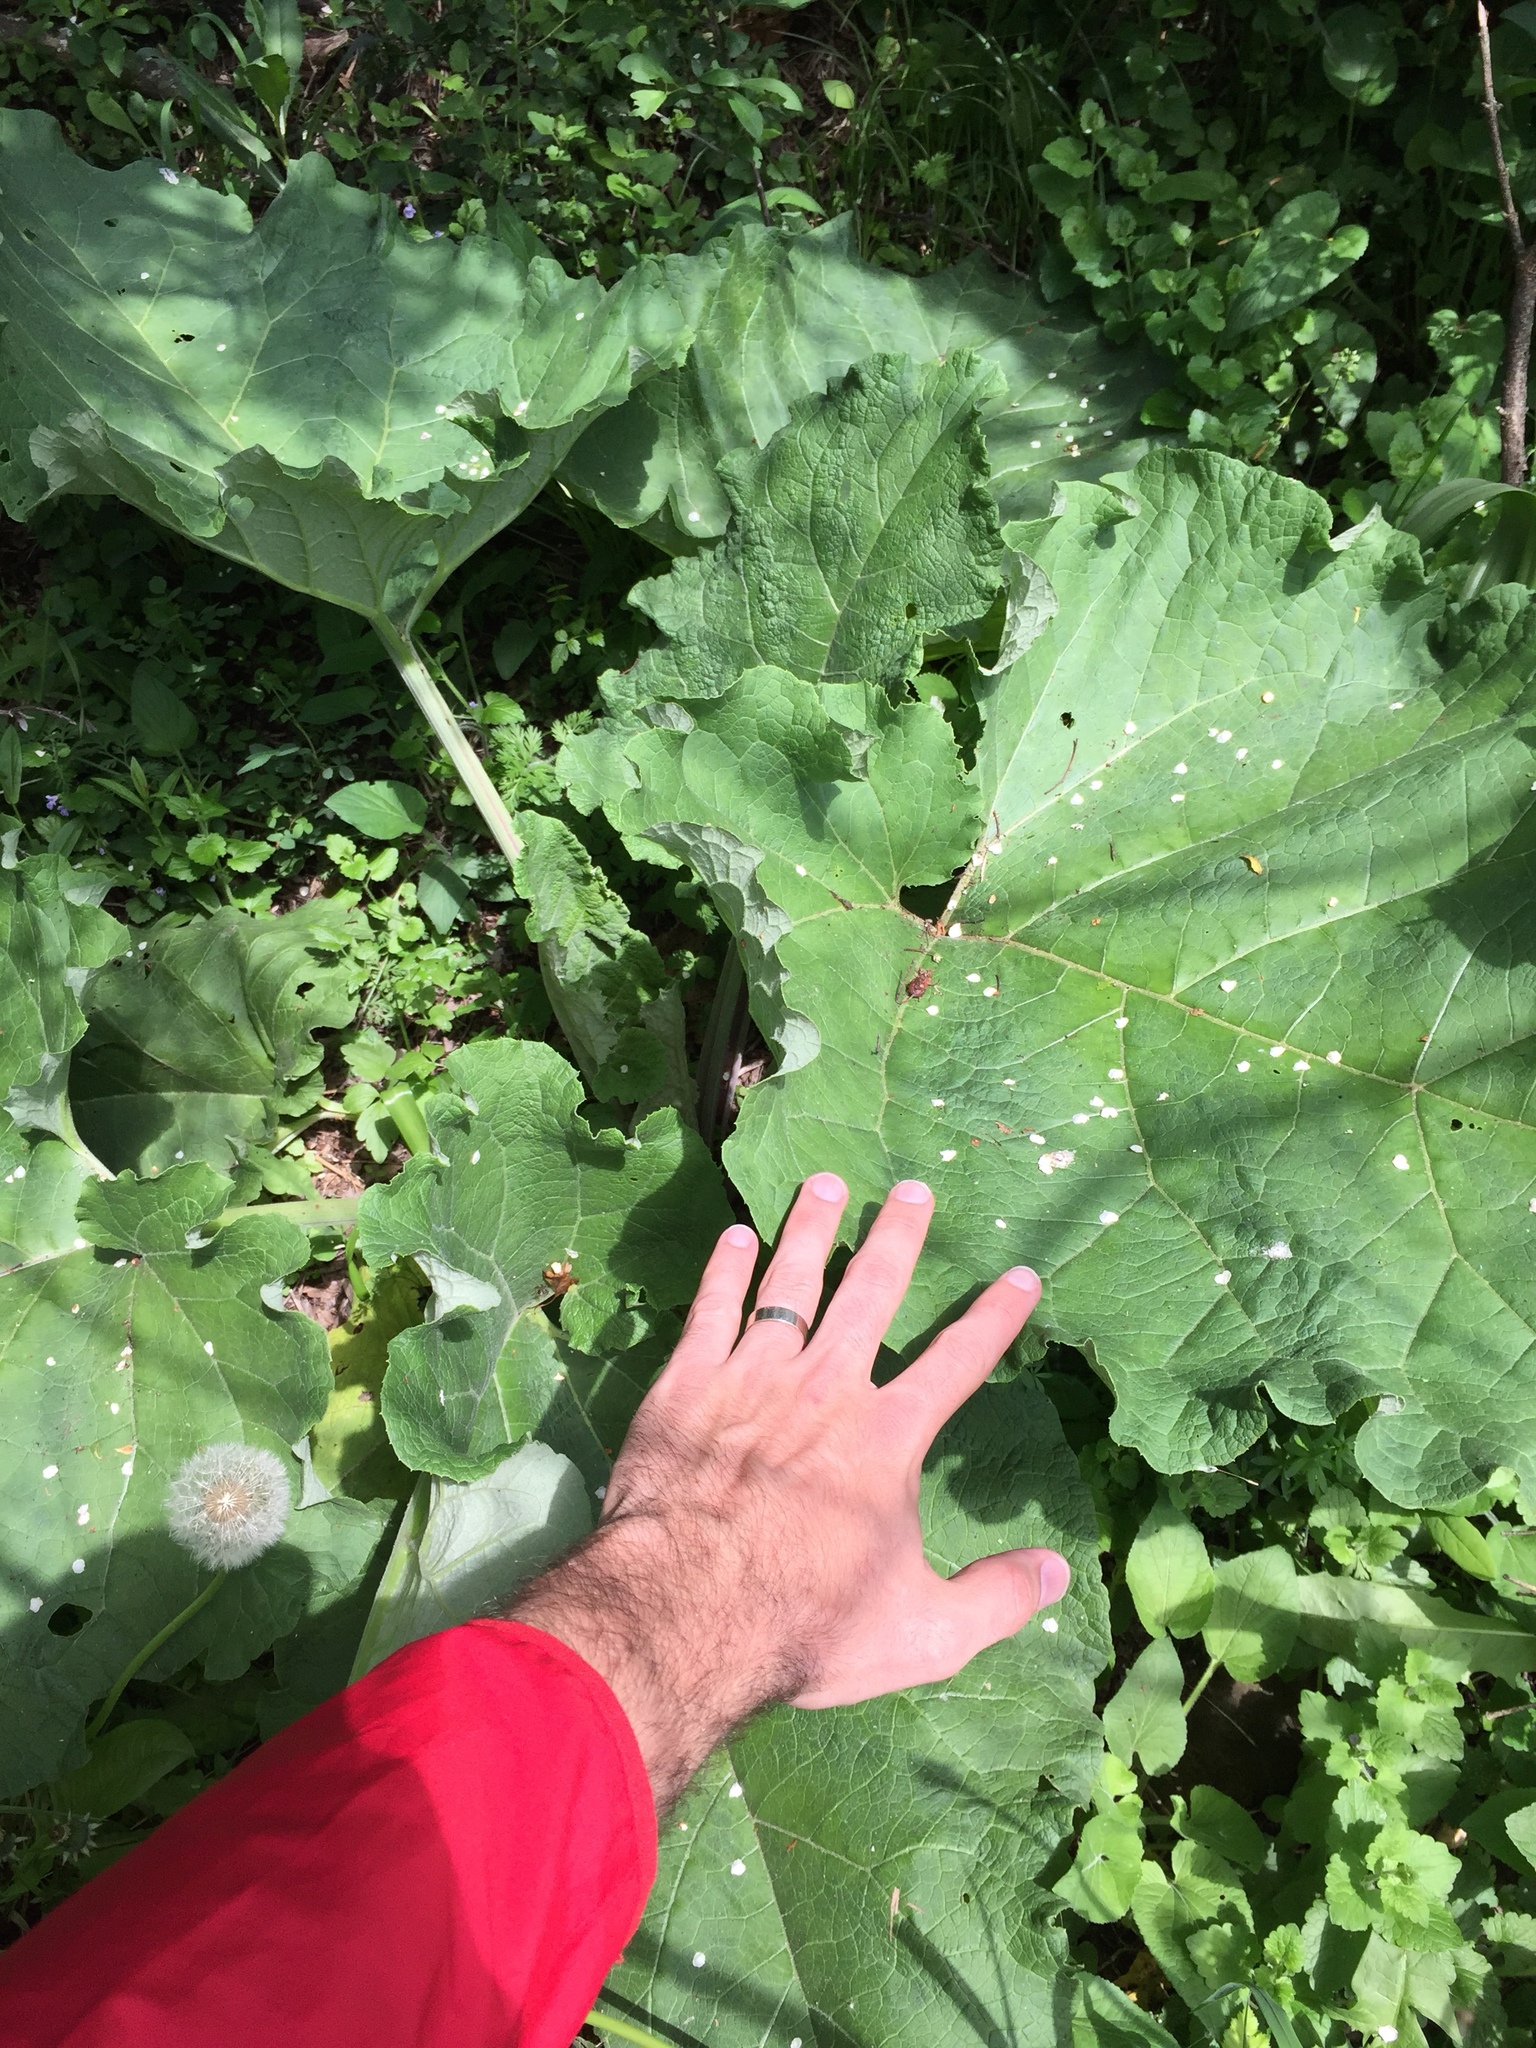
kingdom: Plantae
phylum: Tracheophyta
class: Magnoliopsida
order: Asterales
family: Asteraceae
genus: Arctium
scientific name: Arctium lappa
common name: Greater burdock
